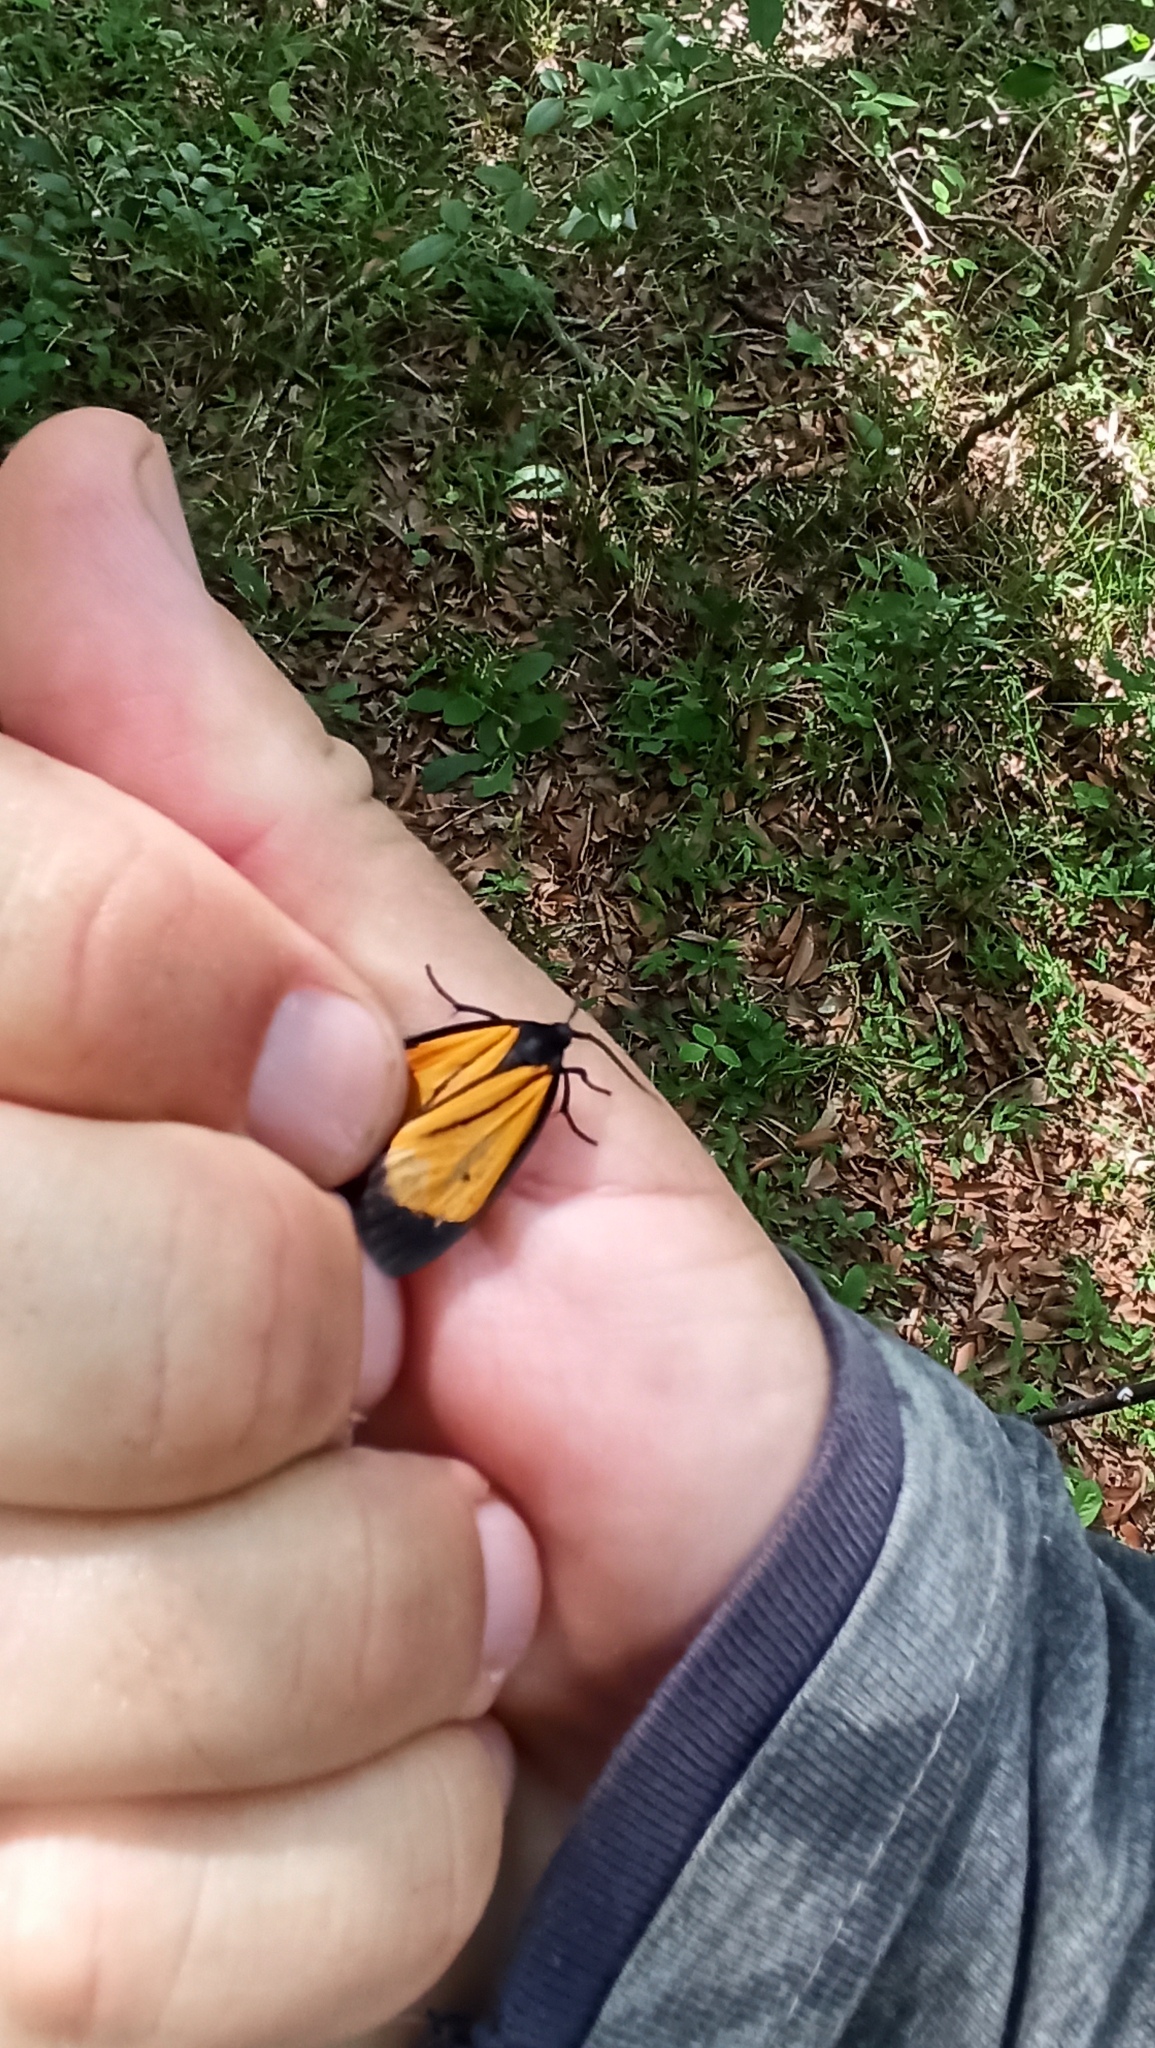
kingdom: Animalia
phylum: Arthropoda
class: Insecta
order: Lepidoptera
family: Erebidae
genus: Paratype
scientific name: Paratype univitta
